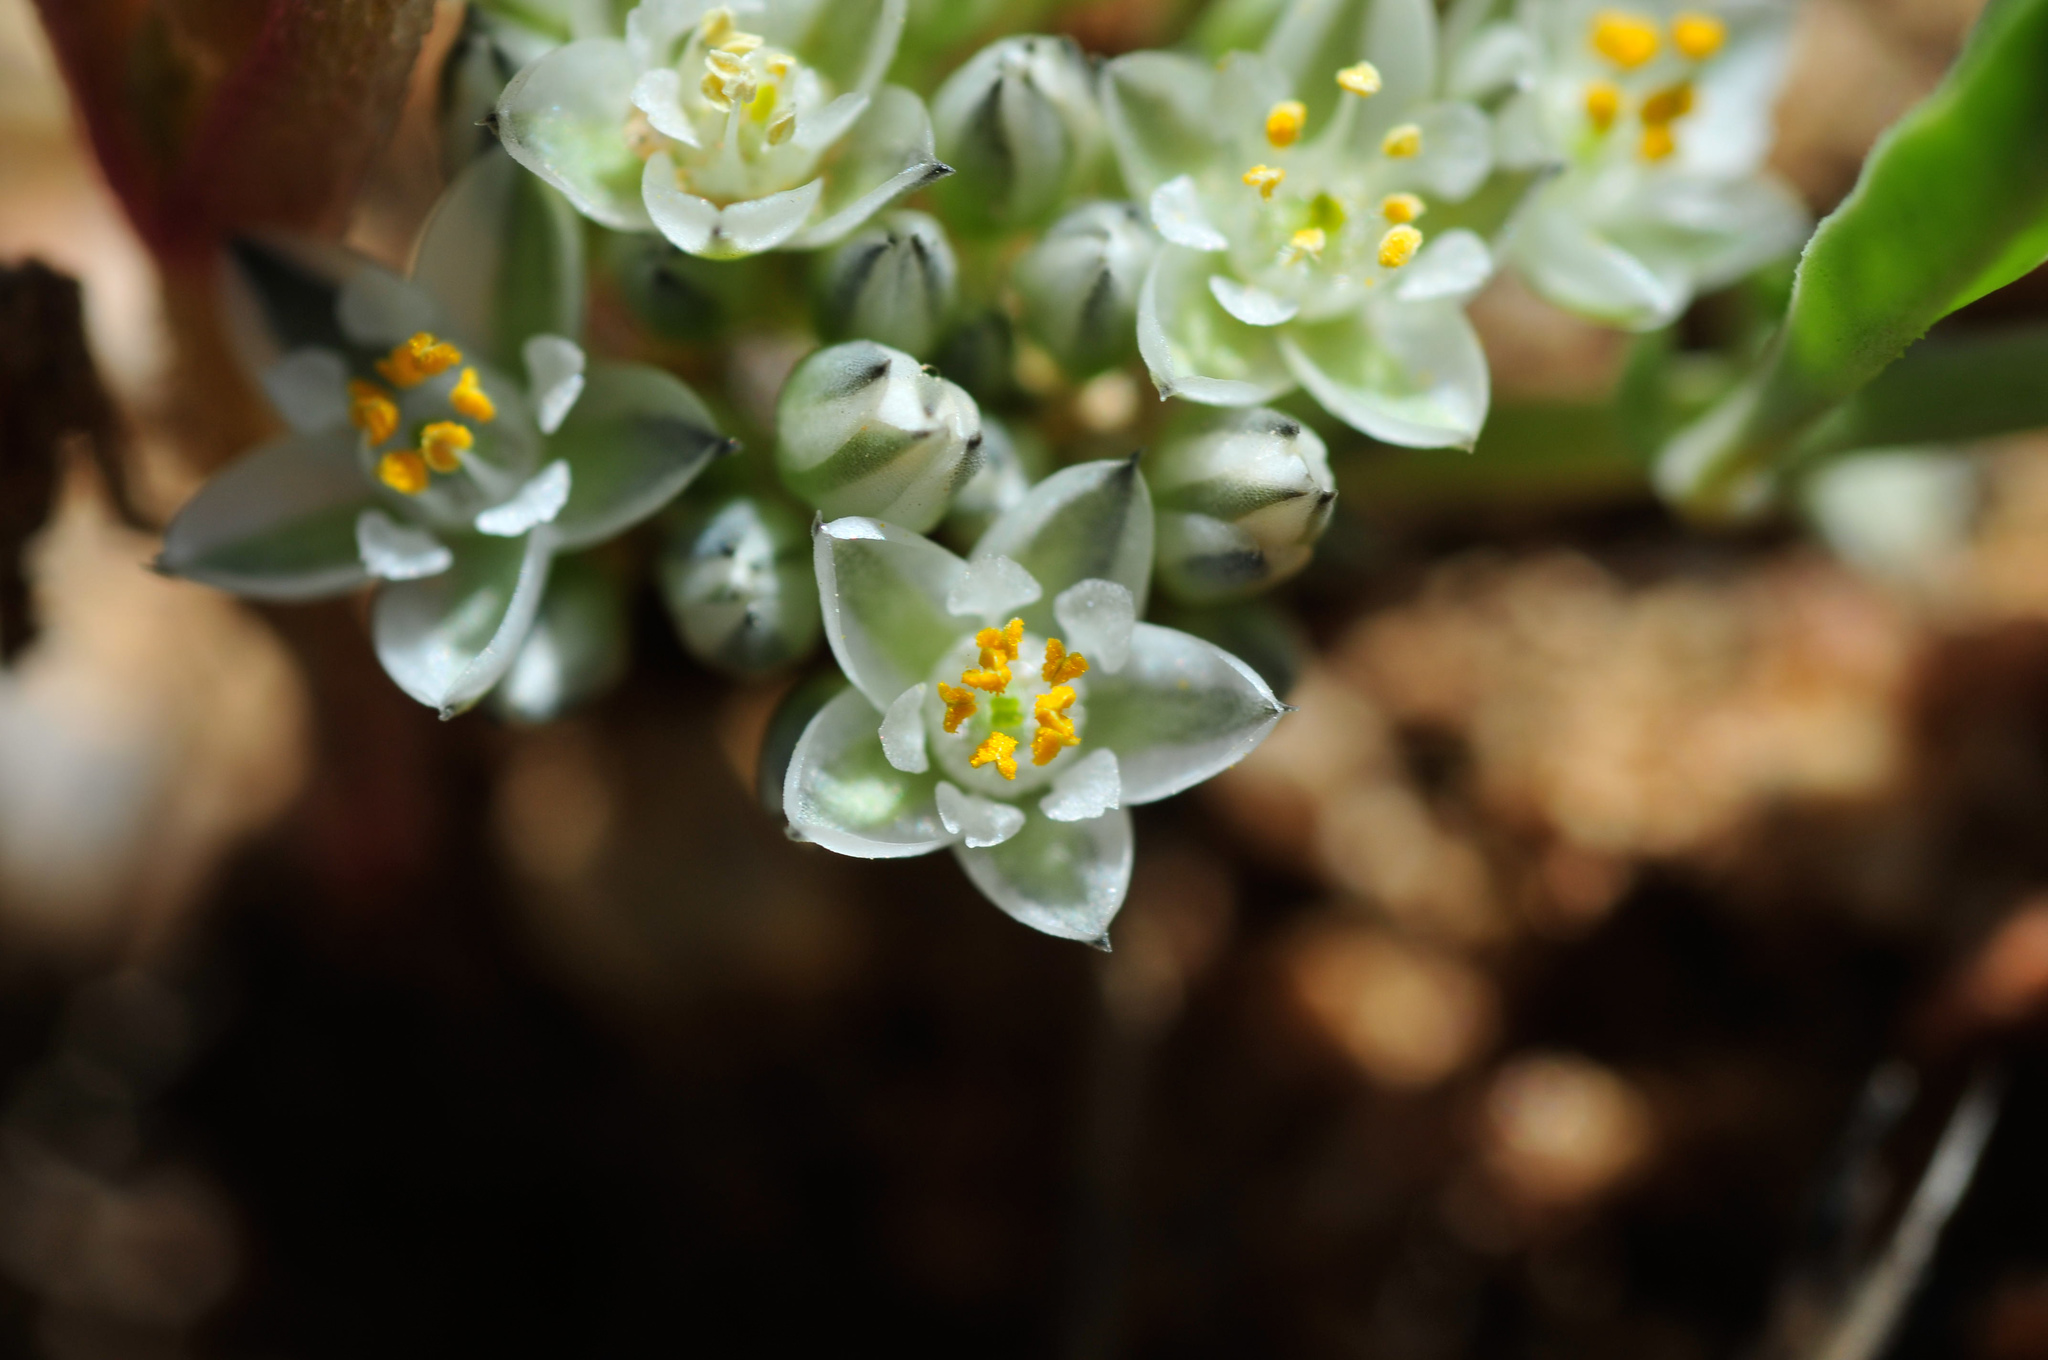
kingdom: Plantae
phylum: Tracheophyta
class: Magnoliopsida
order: Caryophyllales
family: Limeaceae
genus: Limeum
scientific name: Limeum africanum
